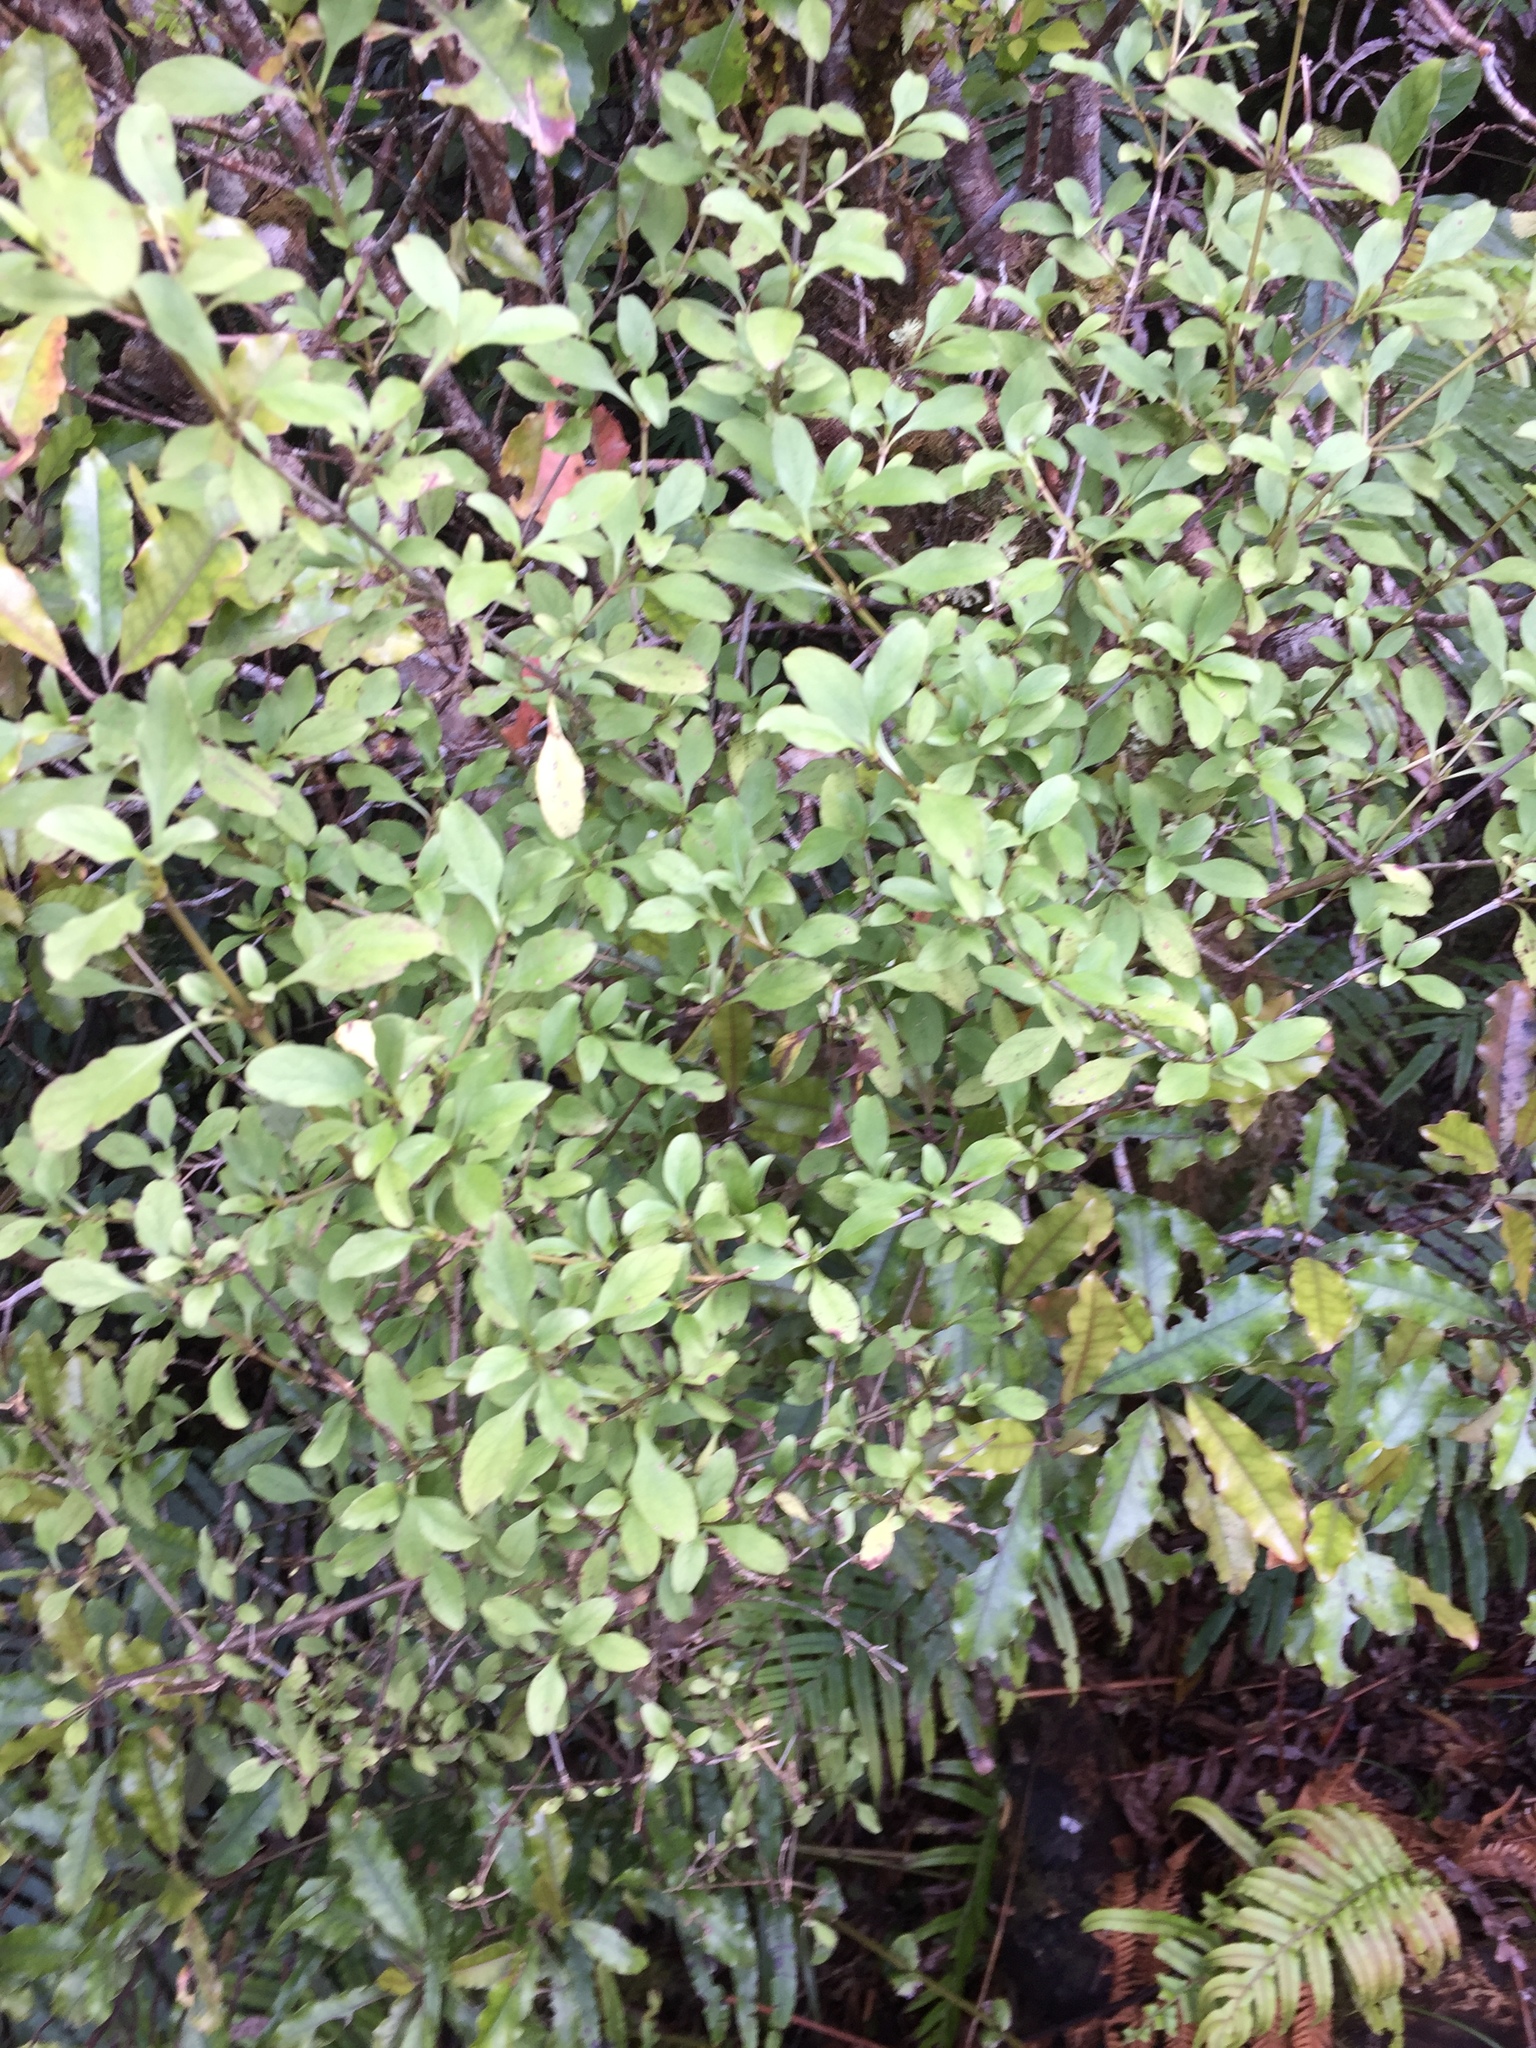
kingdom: Plantae
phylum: Tracheophyta
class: Magnoliopsida
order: Gentianales
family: Rubiaceae
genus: Coprosma
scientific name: Coprosma foetidissima
